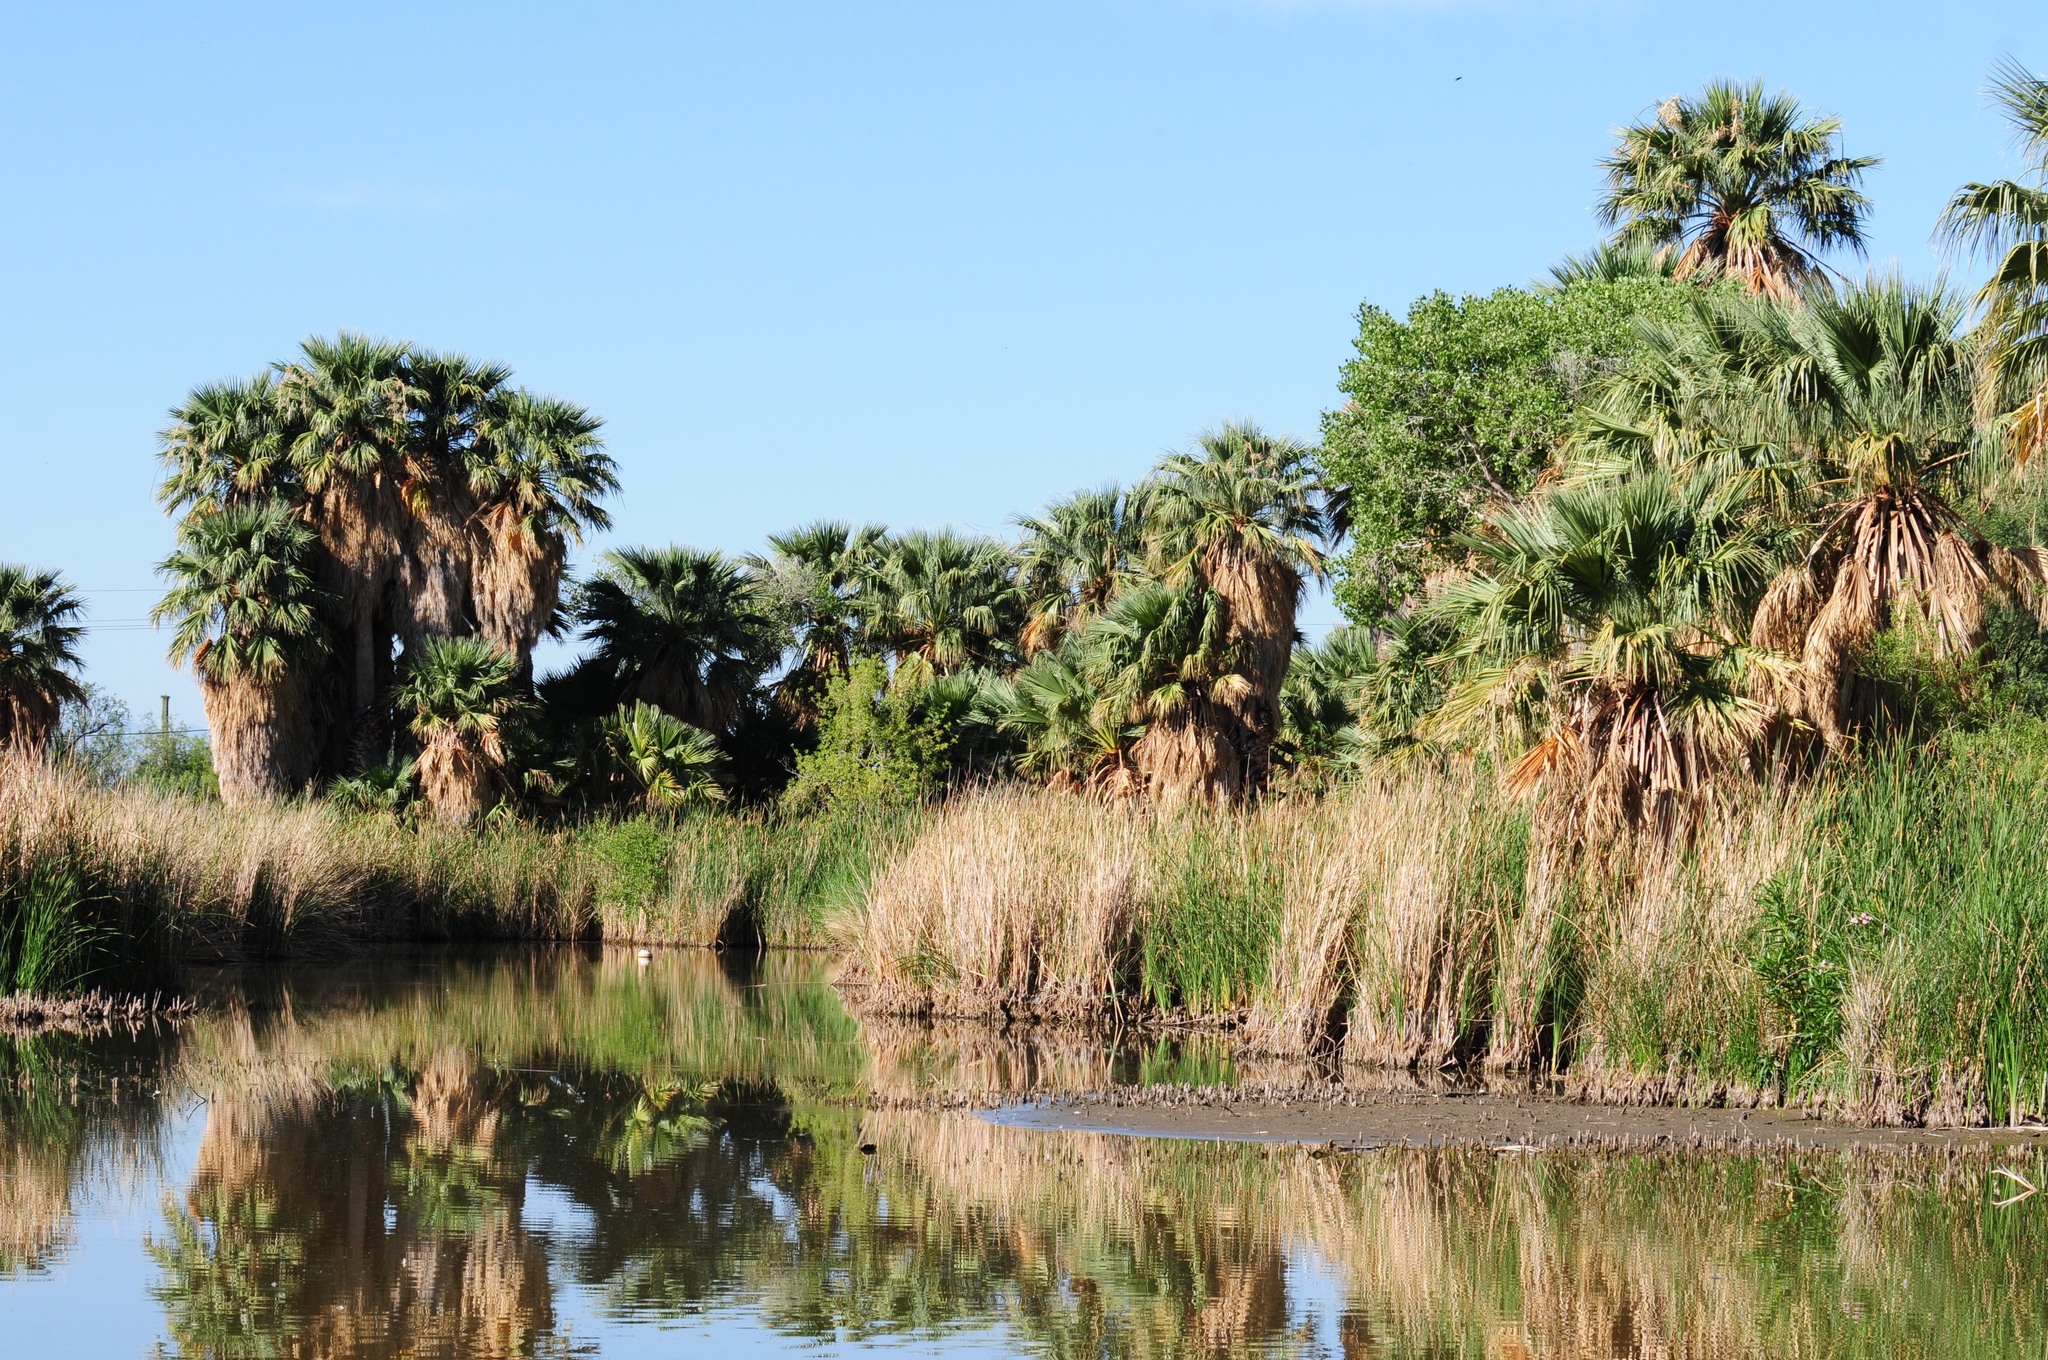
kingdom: Plantae
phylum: Tracheophyta
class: Liliopsida
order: Arecales
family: Arecaceae
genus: Washingtonia
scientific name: Washingtonia robusta
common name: Mexican fan palm
